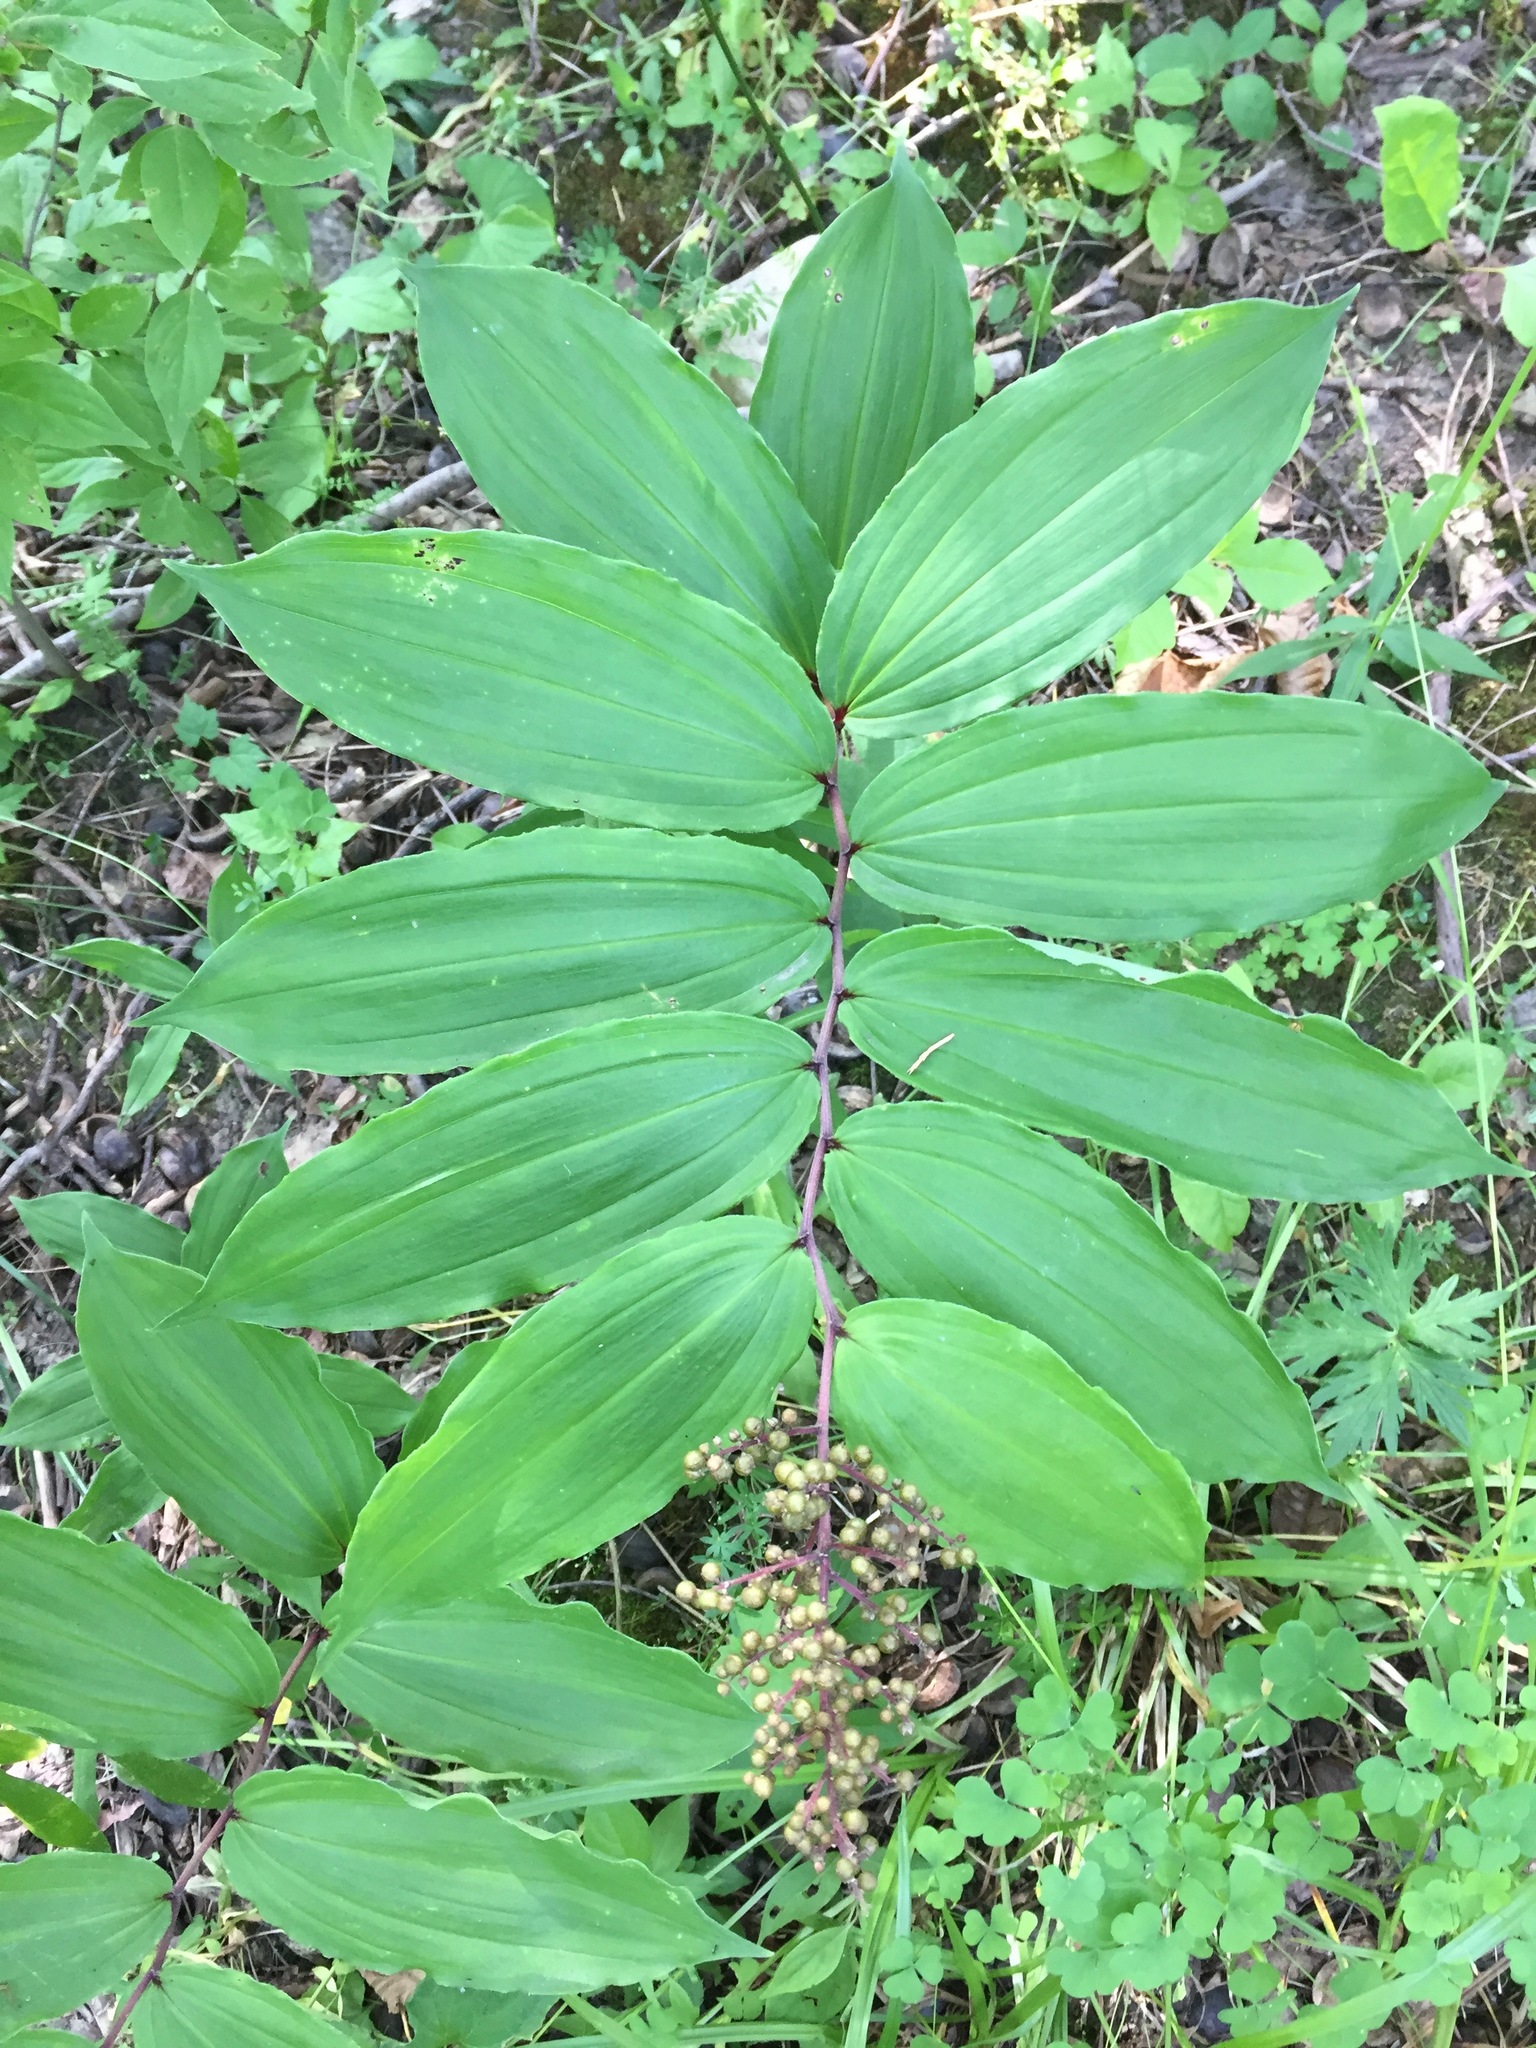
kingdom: Plantae
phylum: Tracheophyta
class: Liliopsida
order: Asparagales
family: Asparagaceae
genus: Maianthemum
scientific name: Maianthemum racemosum
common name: False spikenard
